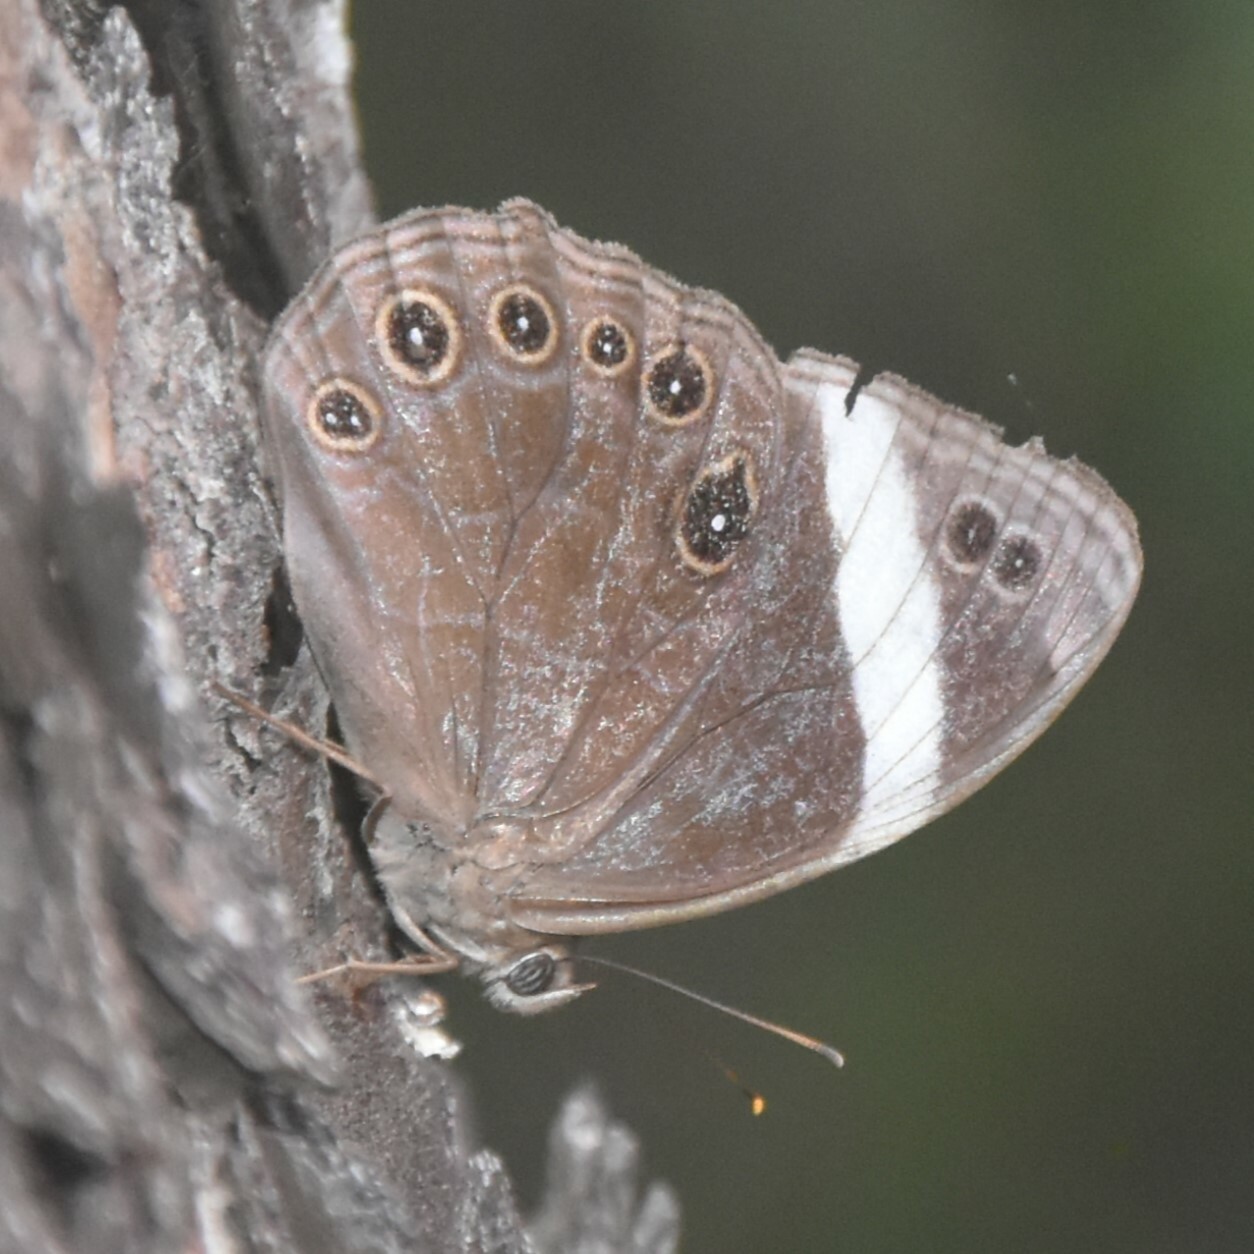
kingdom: Animalia
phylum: Arthropoda
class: Insecta
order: Lepidoptera
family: Nymphalidae
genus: Lethe
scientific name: Lethe verma
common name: Straight-banded treebrown
